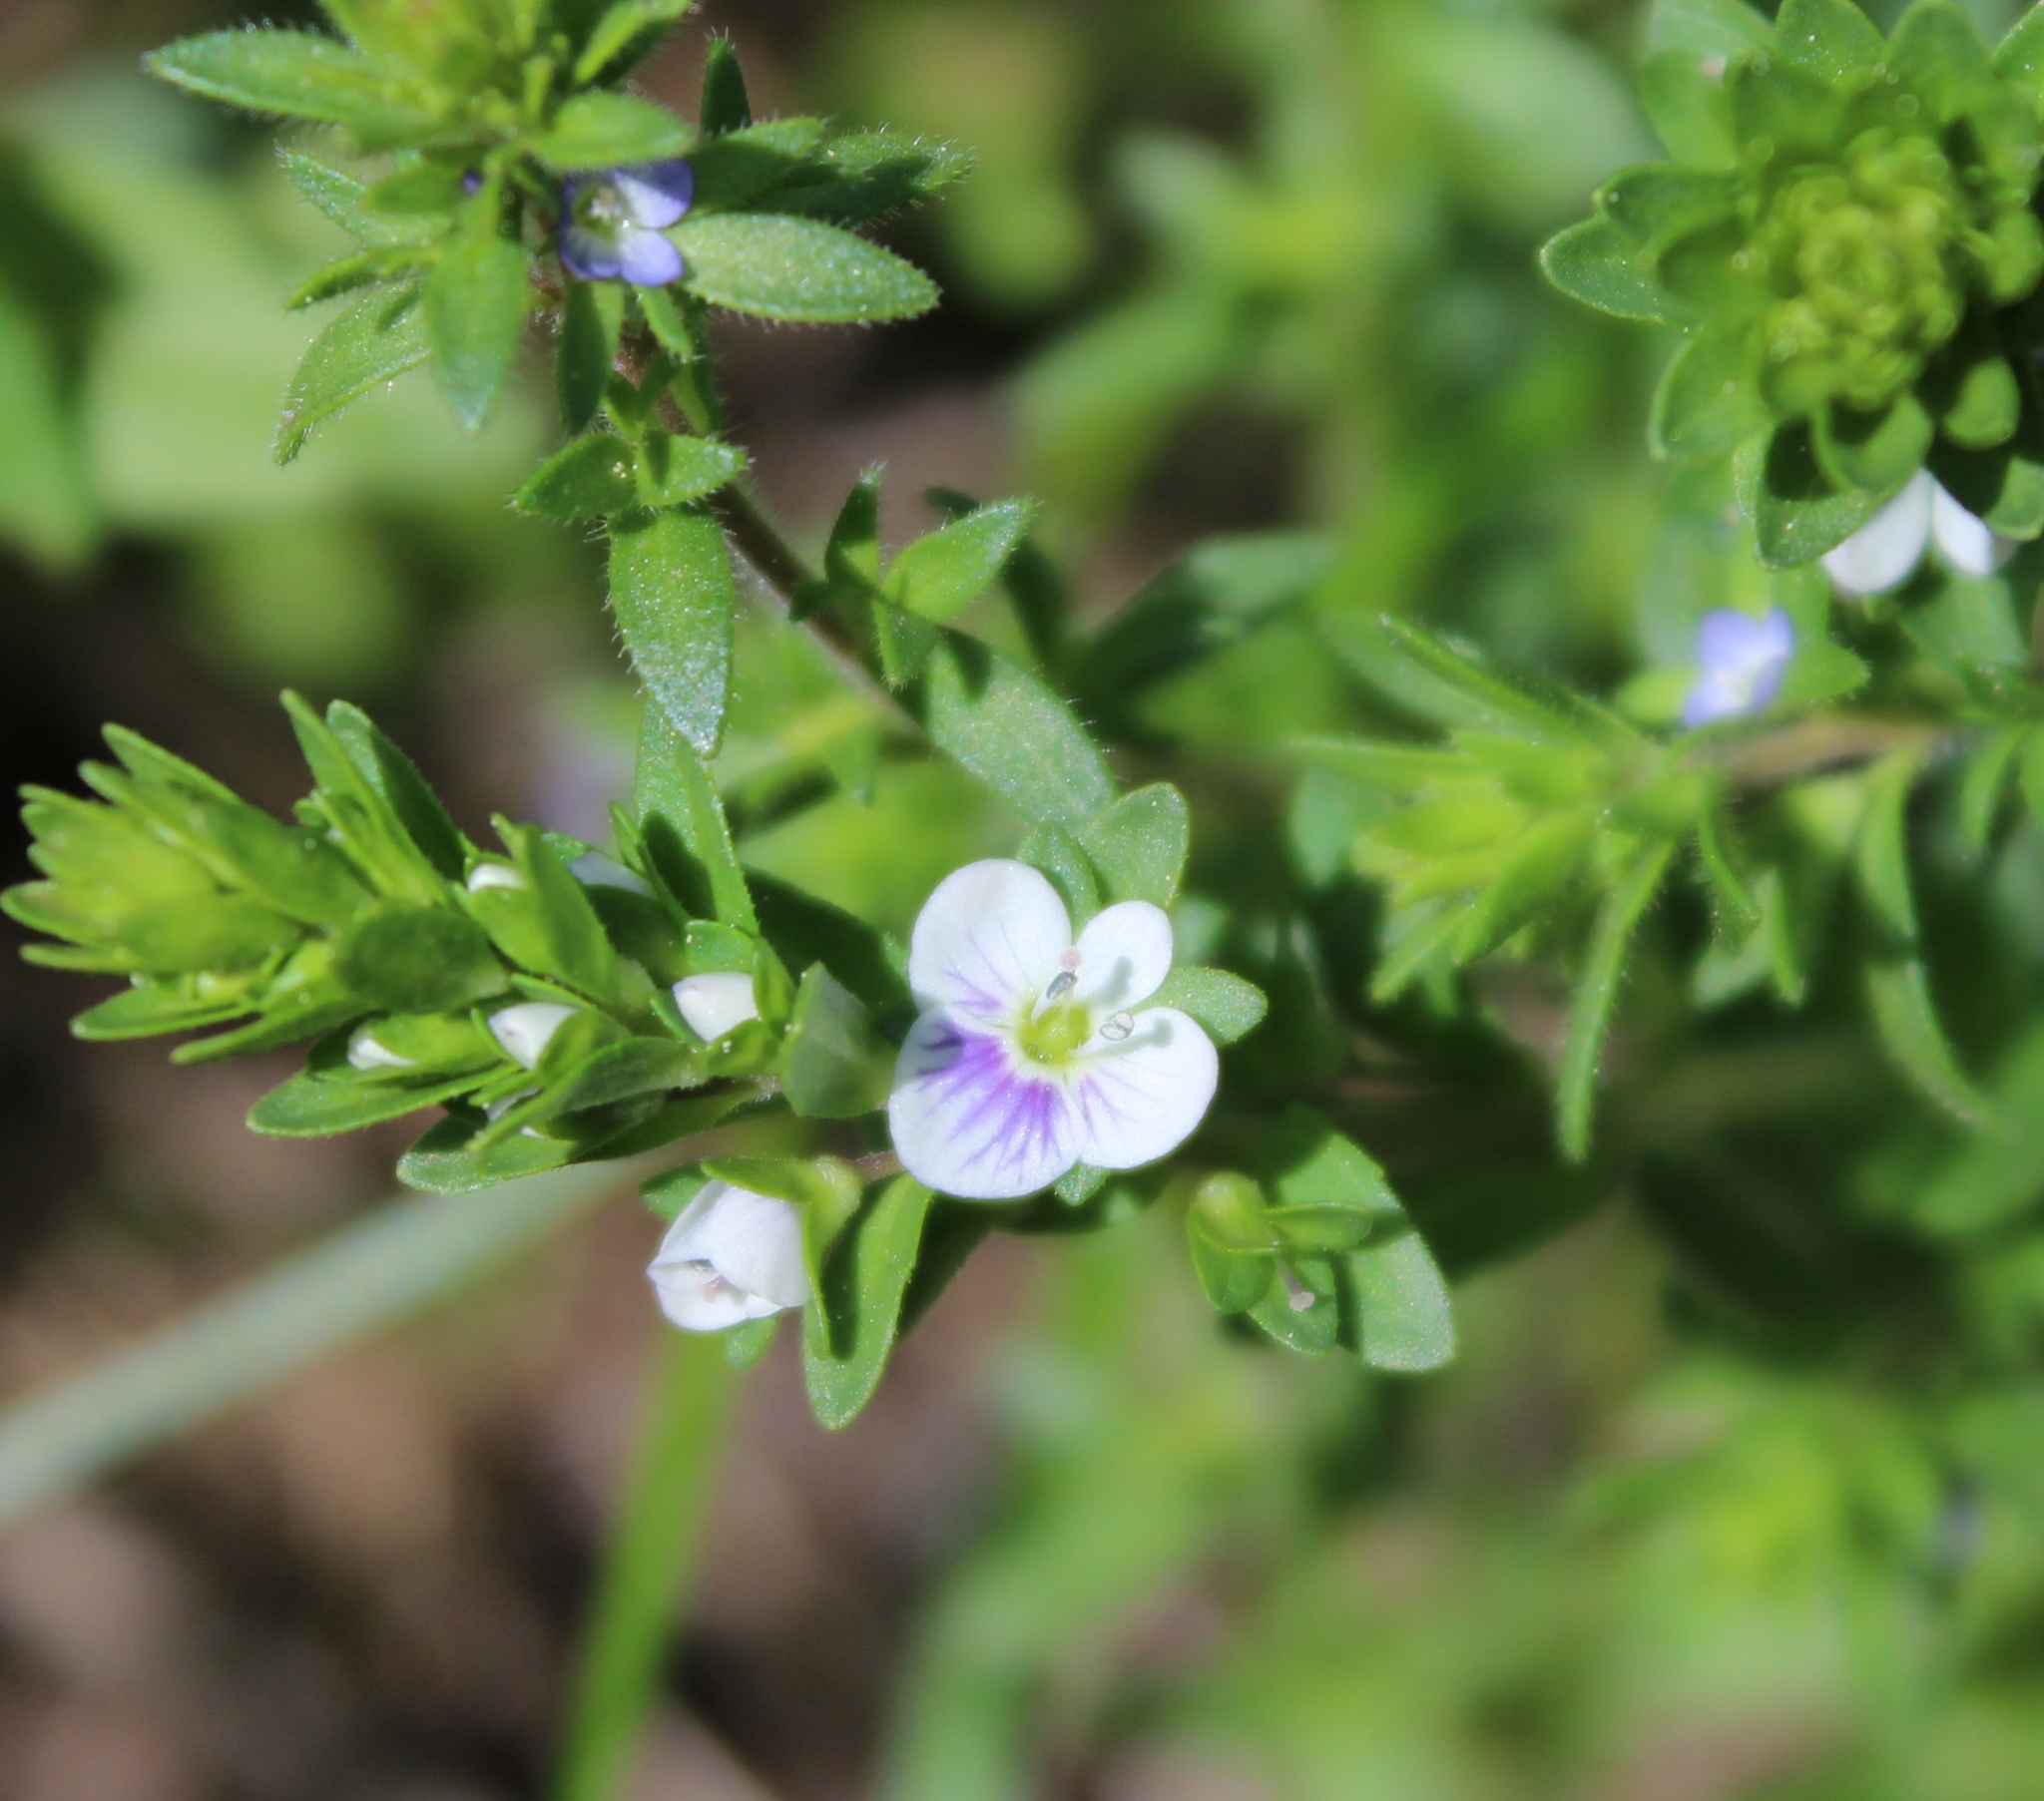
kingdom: Plantae
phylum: Tracheophyta
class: Magnoliopsida
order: Lamiales
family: Plantaginaceae
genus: Veronica
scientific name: Veronica serpyllifolia
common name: Thyme-leaved speedwell
